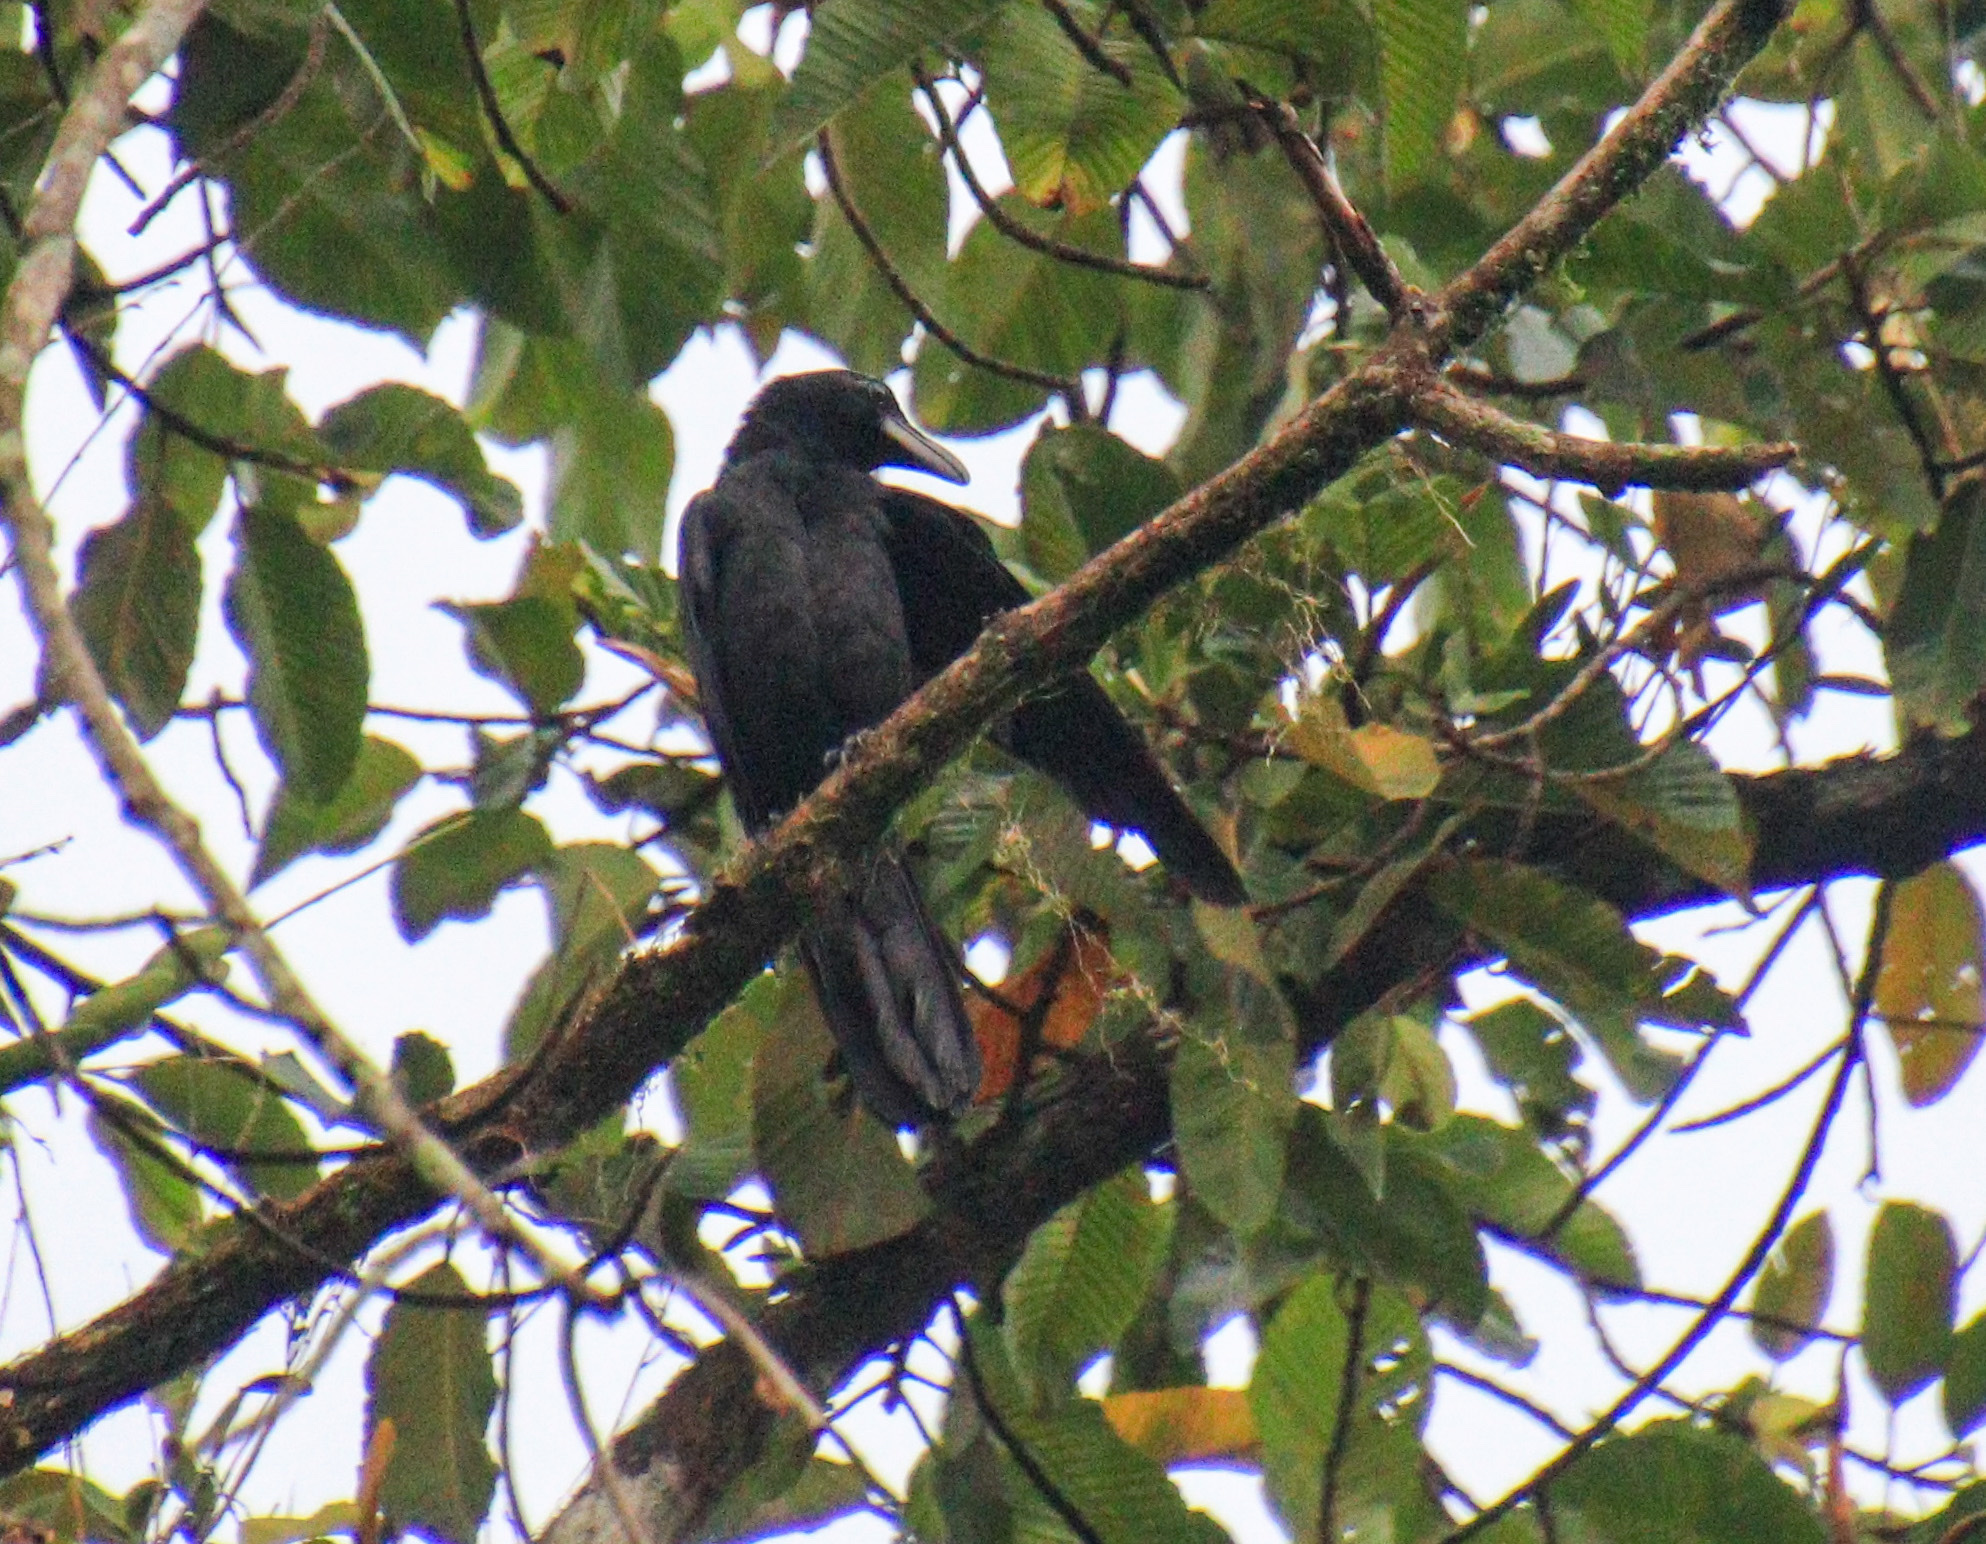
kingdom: Animalia
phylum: Chordata
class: Aves
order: Passeriformes
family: Corvidae
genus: Corvus
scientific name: Corvus macrorhynchos
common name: Large-billed crow
